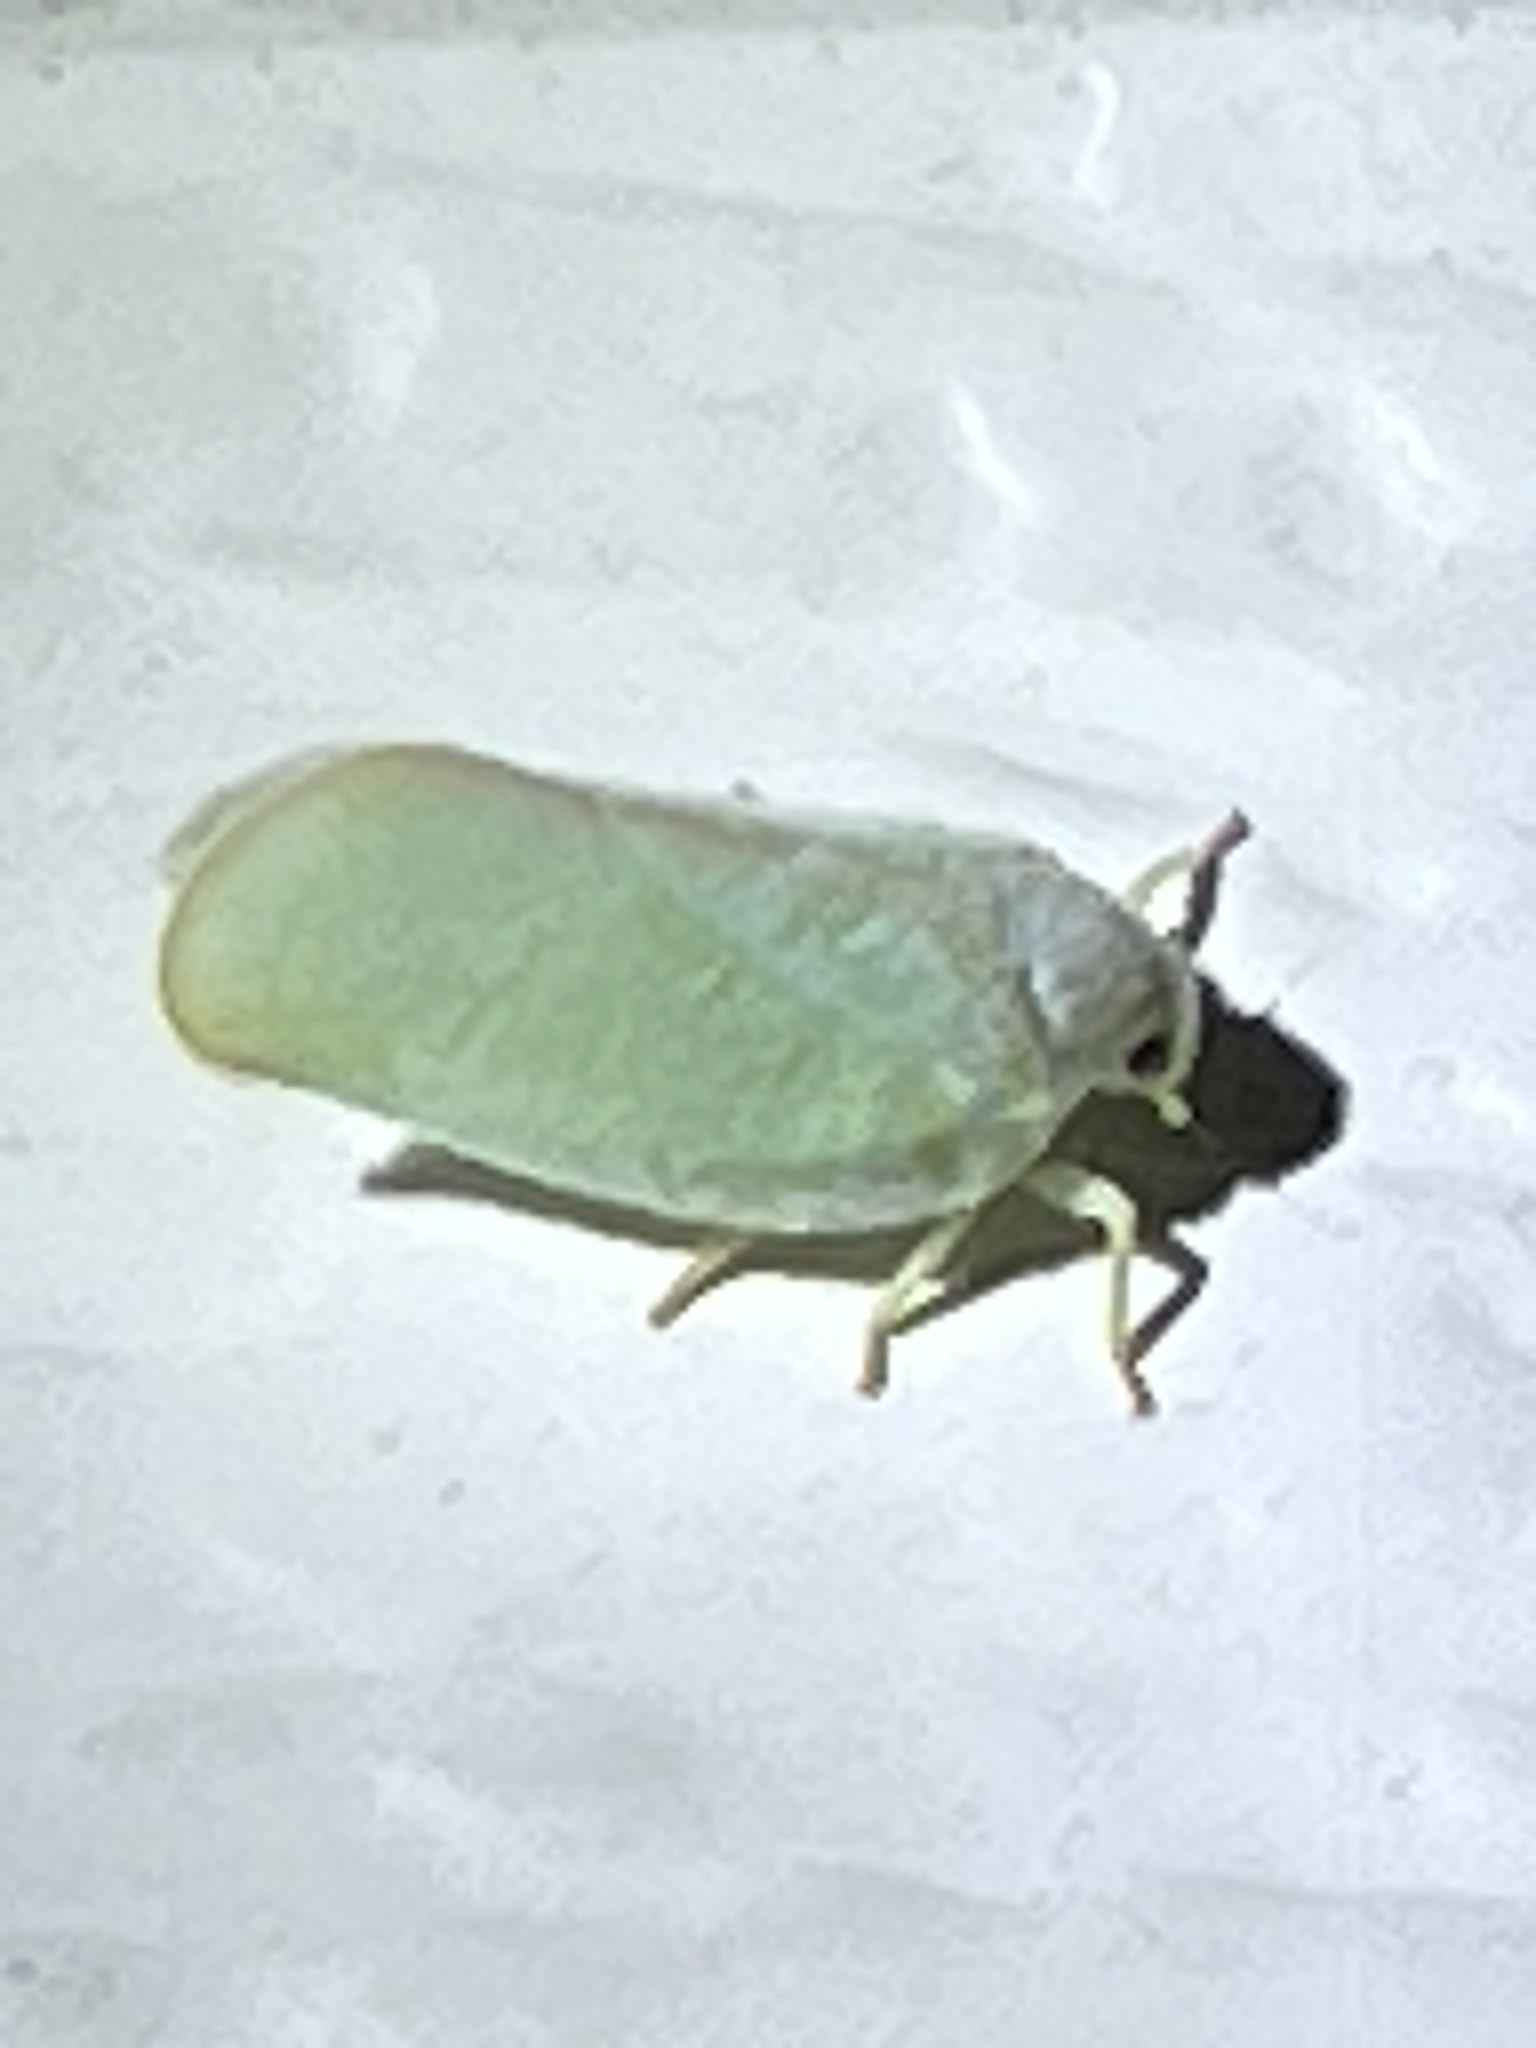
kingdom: Animalia
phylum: Arthropoda
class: Insecta
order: Hemiptera
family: Flatidae
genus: Ormenoides
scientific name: Ormenoides venusta
